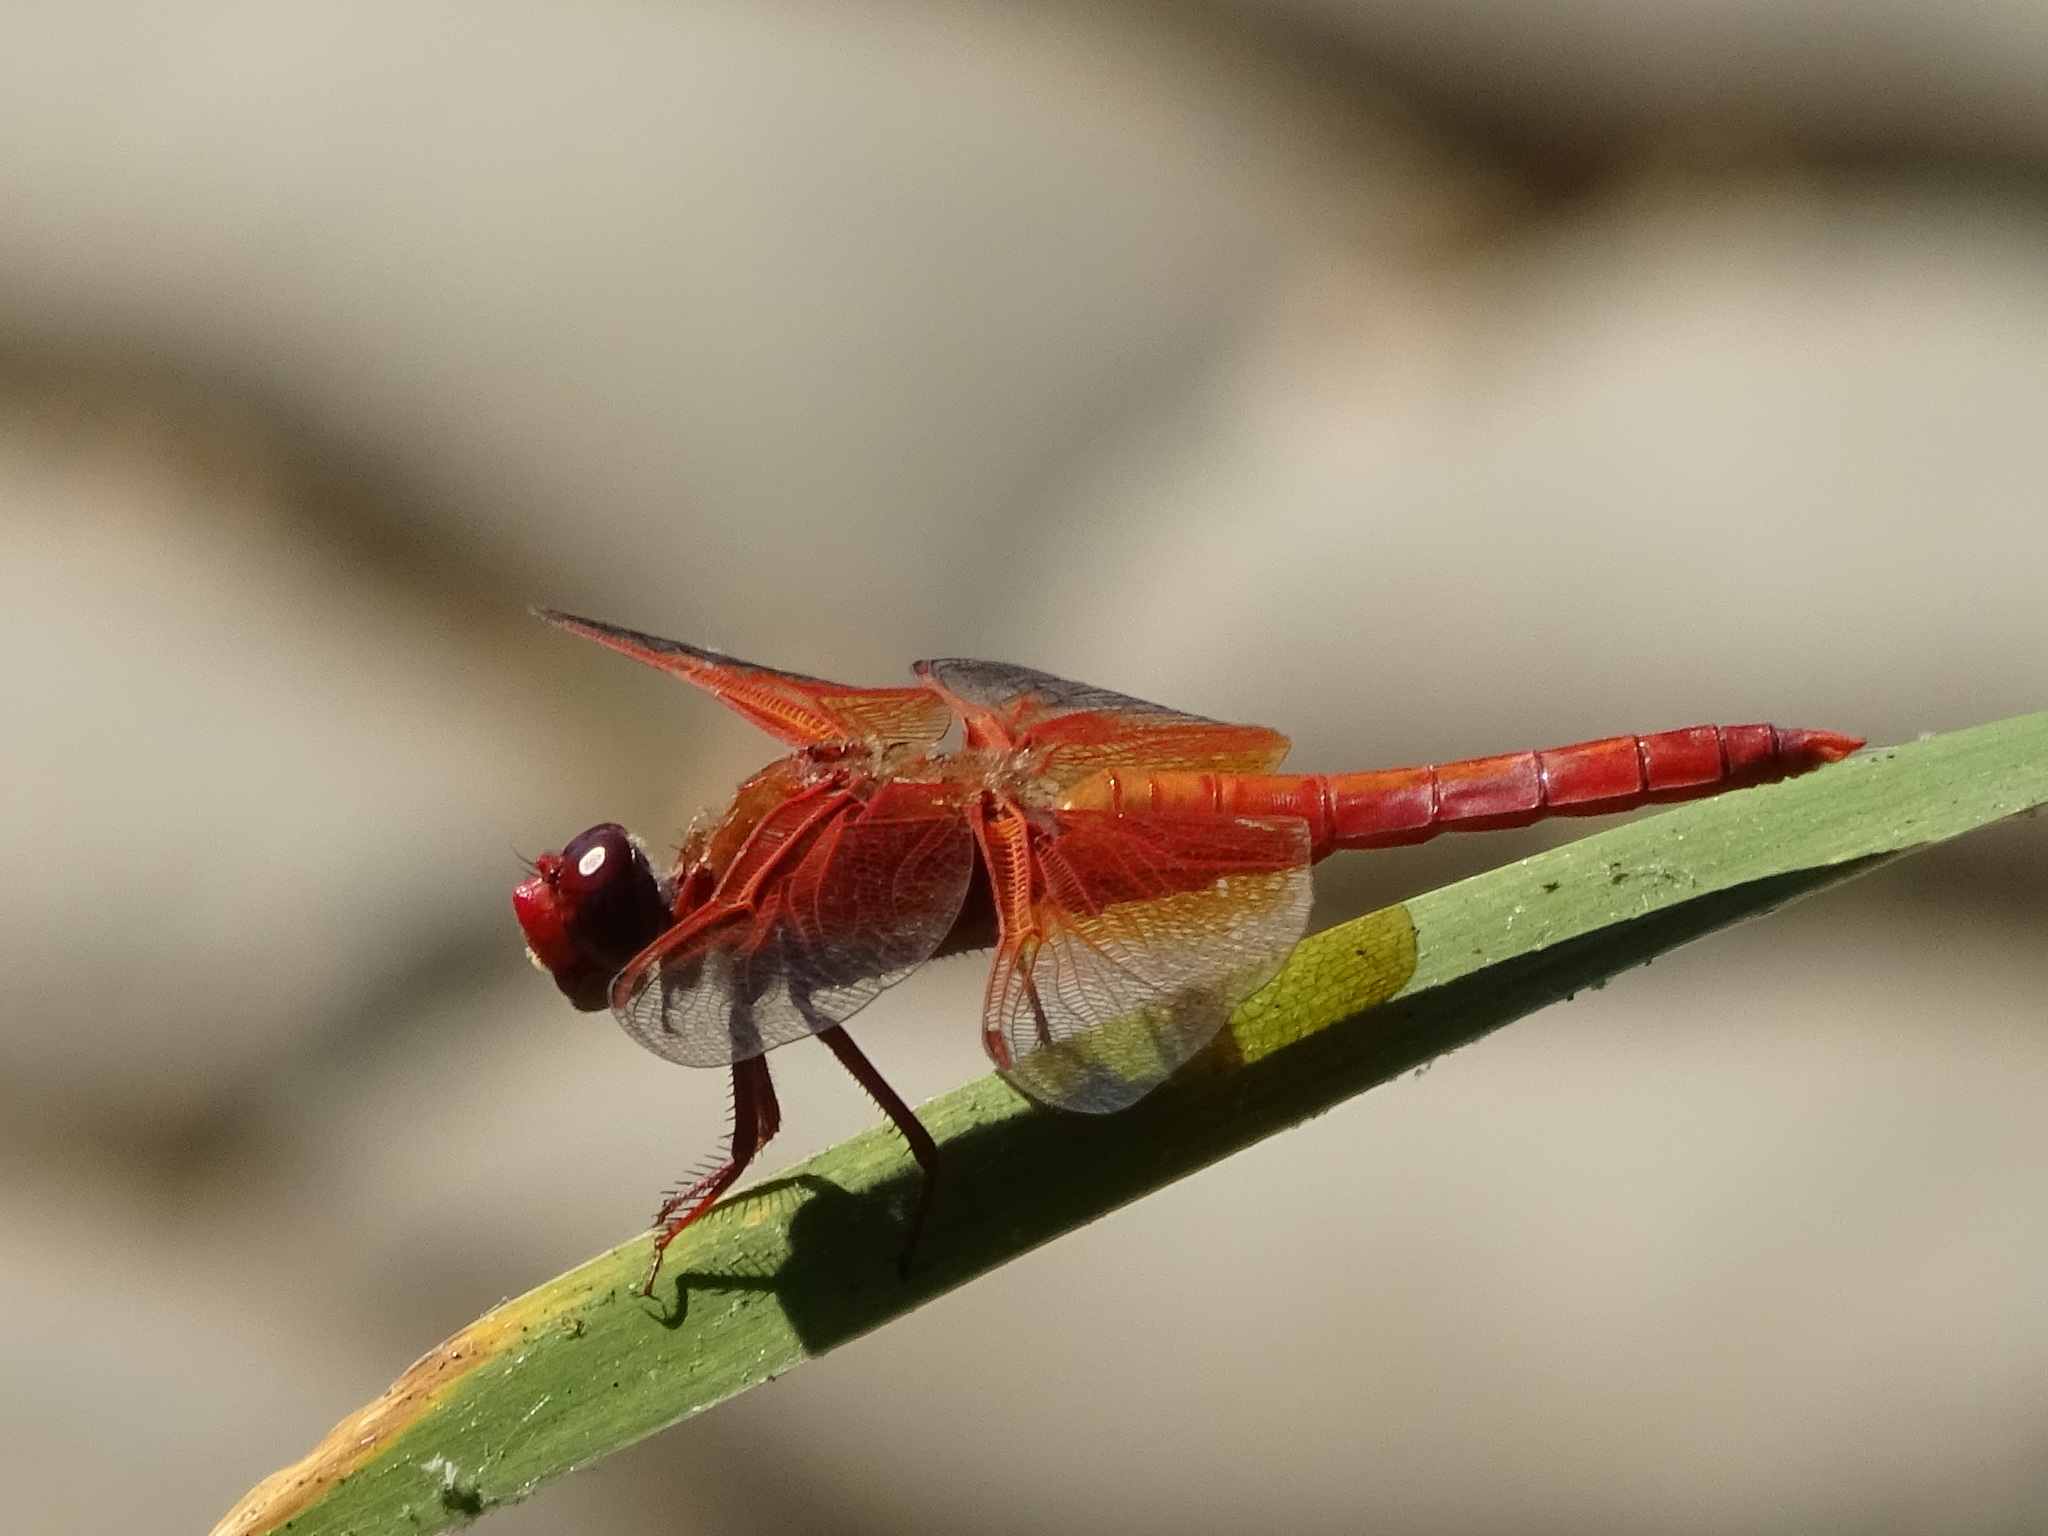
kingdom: Animalia
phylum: Arthropoda
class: Insecta
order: Odonata
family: Libellulidae
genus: Libellula
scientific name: Libellula saturata
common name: Flame skimmer
